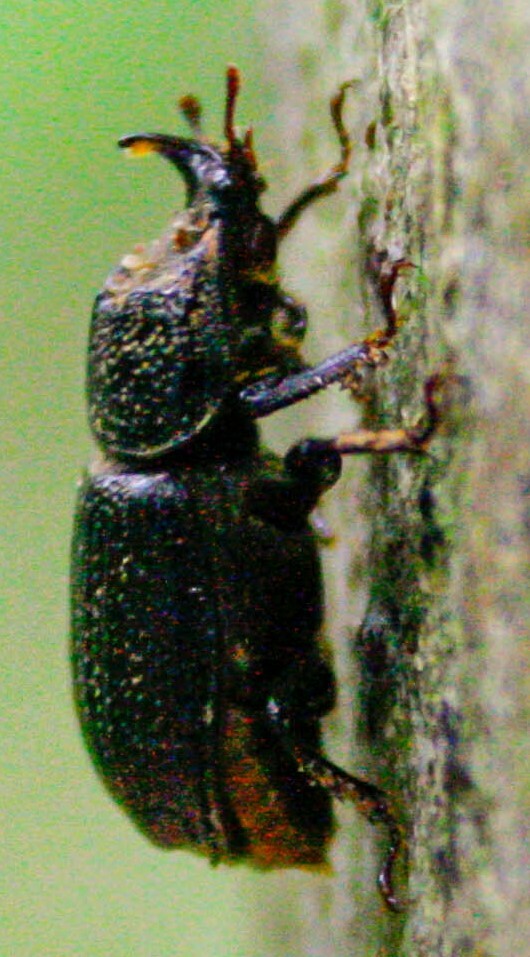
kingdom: Animalia
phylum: Arthropoda
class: Insecta
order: Coleoptera
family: Lucanidae
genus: Sinodendron
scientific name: Sinodendron cylindricum
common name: Rhinoceros beetle
